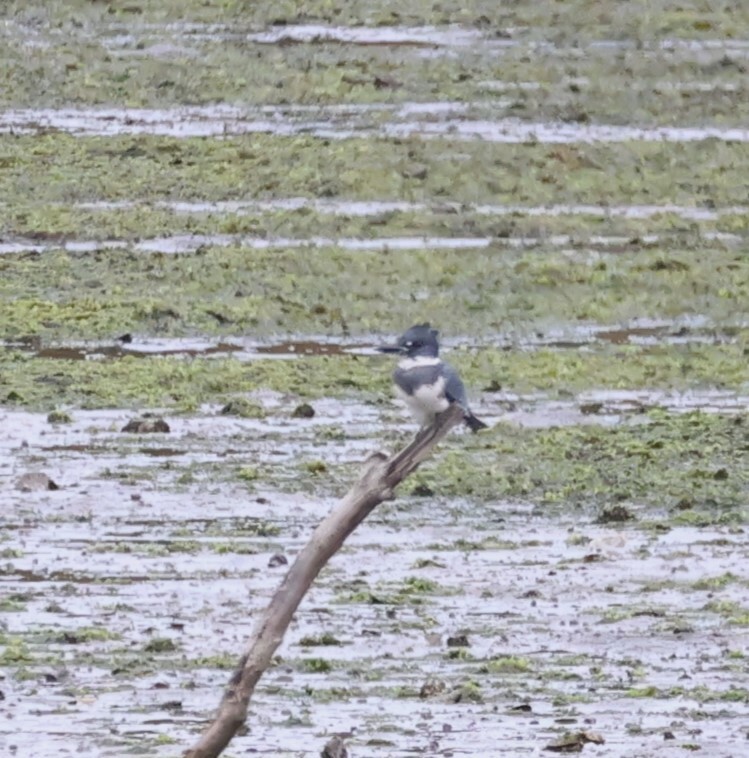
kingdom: Animalia
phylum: Chordata
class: Aves
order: Coraciiformes
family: Alcedinidae
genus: Megaceryle
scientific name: Megaceryle alcyon
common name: Belted kingfisher
